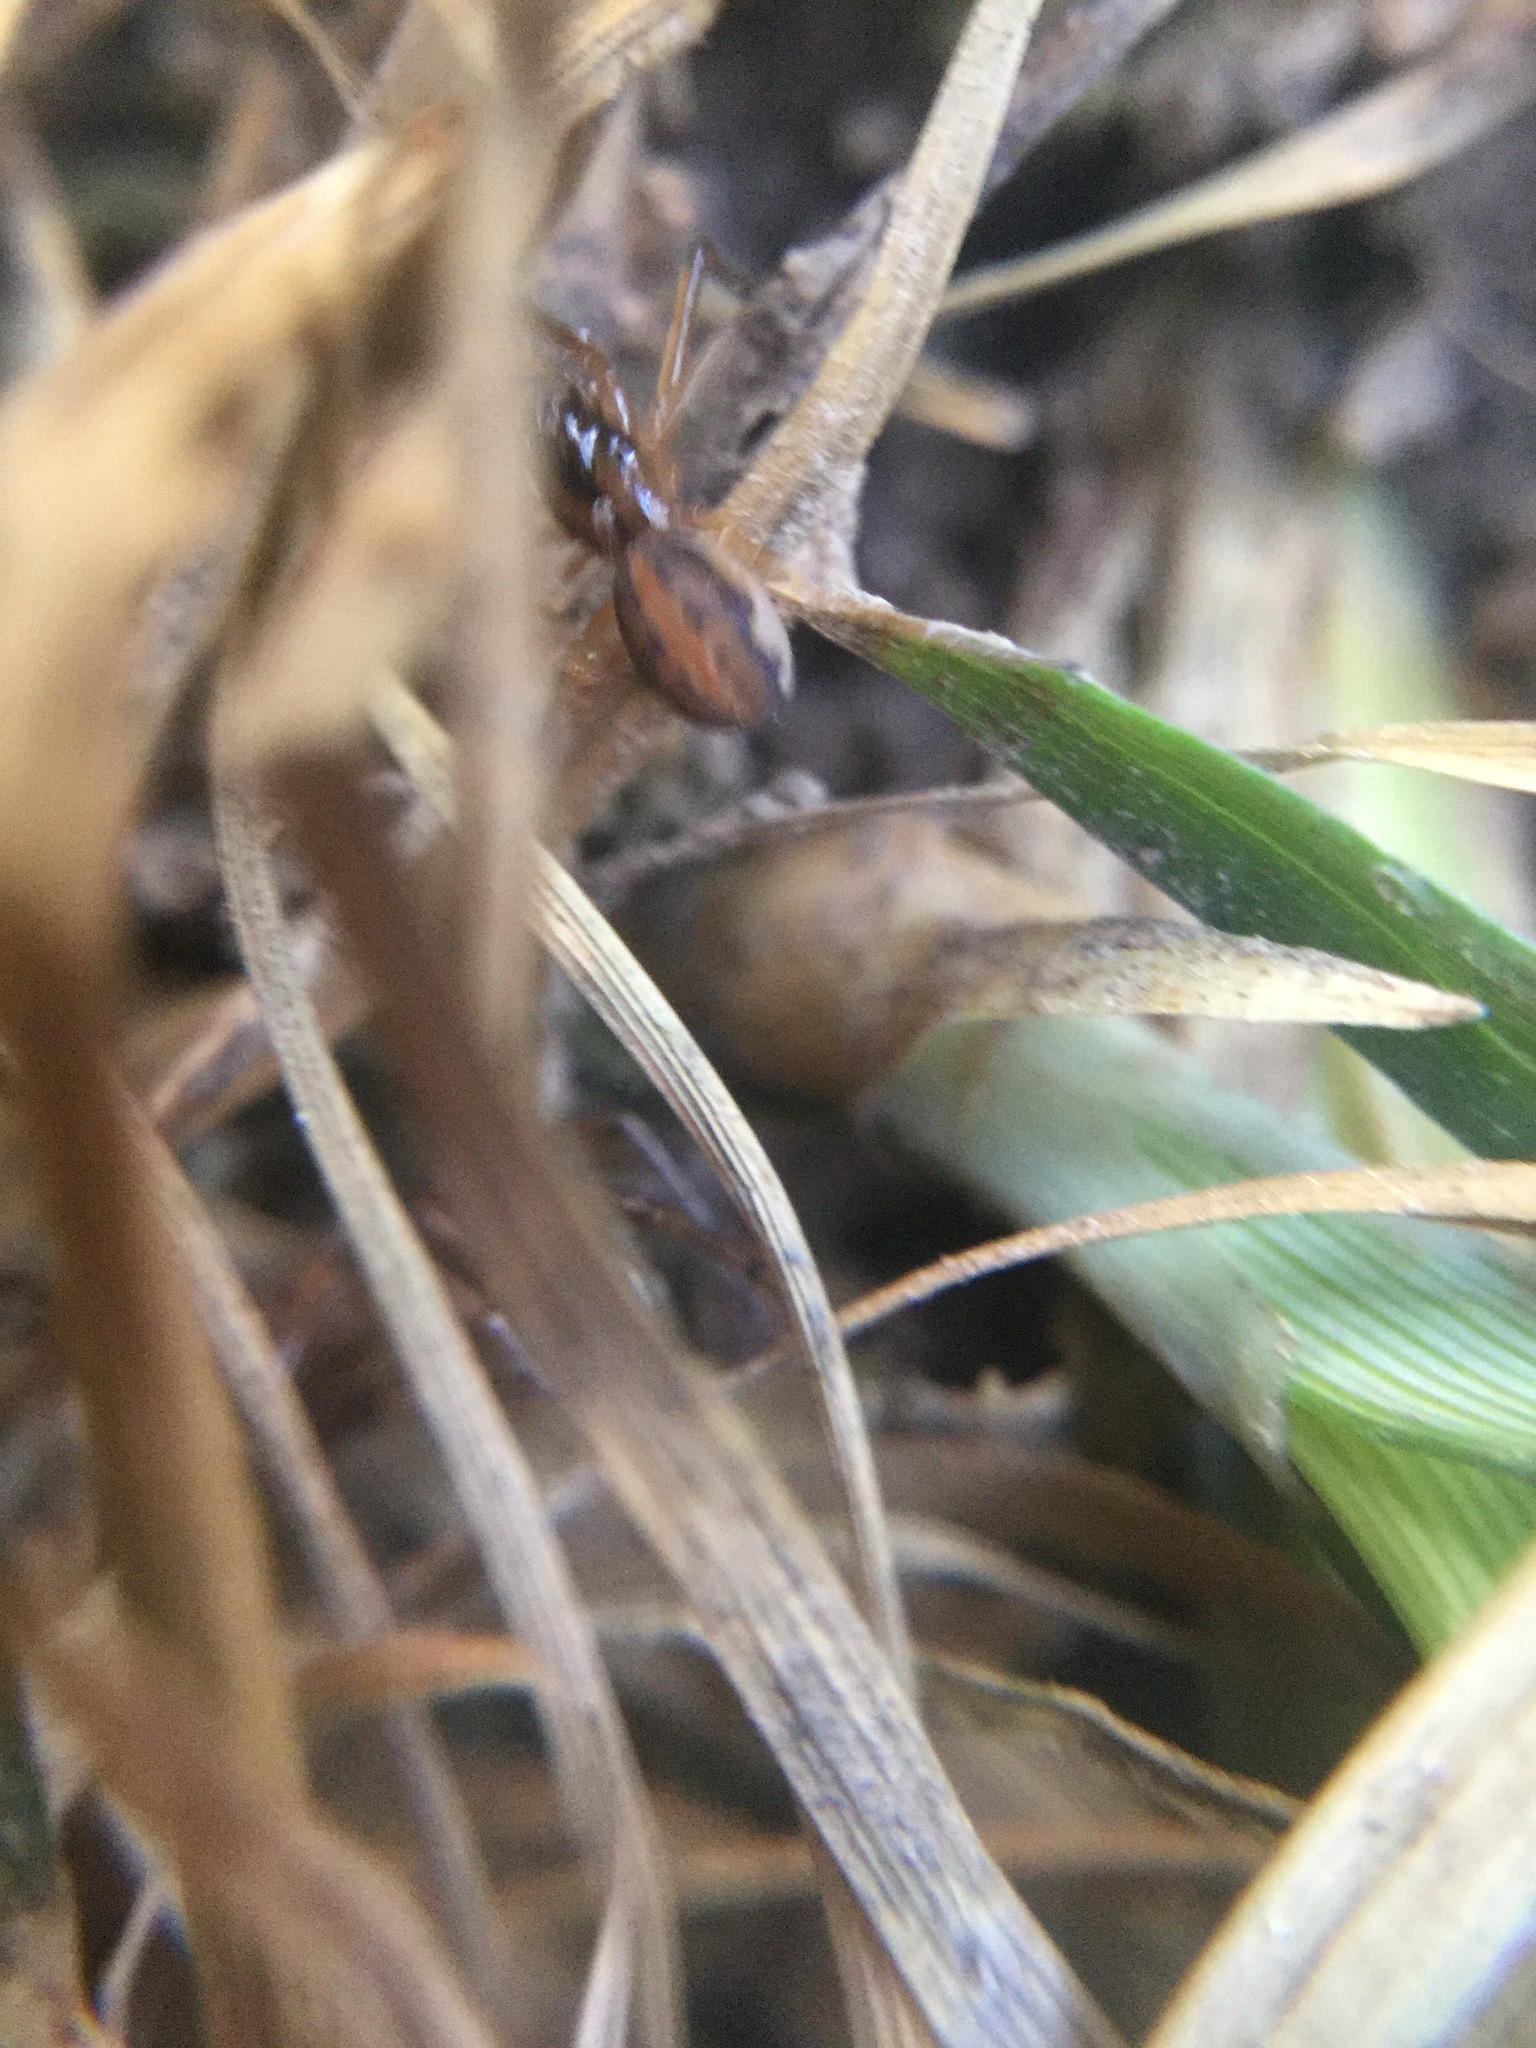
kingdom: Animalia
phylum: Arthropoda
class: Arachnida
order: Araneae
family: Tetragnathidae
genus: Pachygnatha
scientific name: Pachygnatha autumnalis
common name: Big-eyed thick-jawed spider
